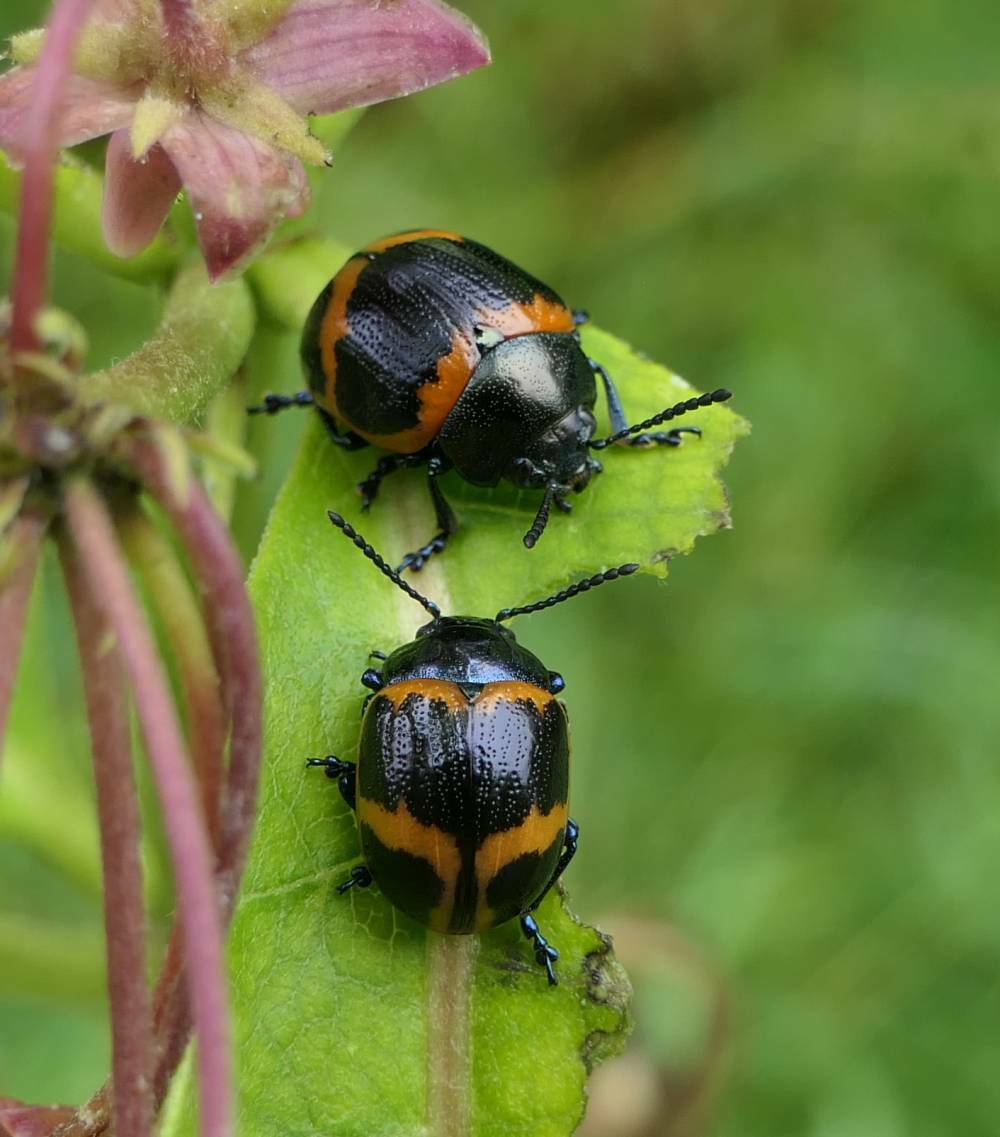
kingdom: Animalia
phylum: Arthropoda
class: Insecta
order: Coleoptera
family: Chrysomelidae
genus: Labidomera
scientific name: Labidomera clivicollis
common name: Swamp milkweed leaf beetle
